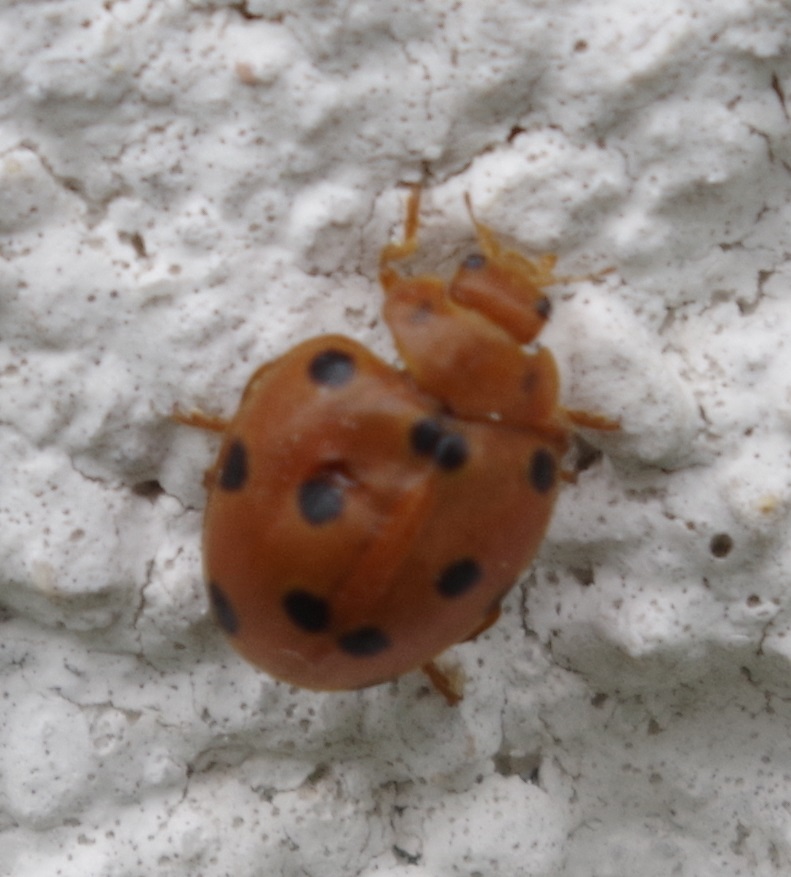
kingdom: Animalia
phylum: Arthropoda
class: Insecta
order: Coleoptera
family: Coccinellidae
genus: Henosepilachna
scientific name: Henosepilachna argus
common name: Bryony ladybird
